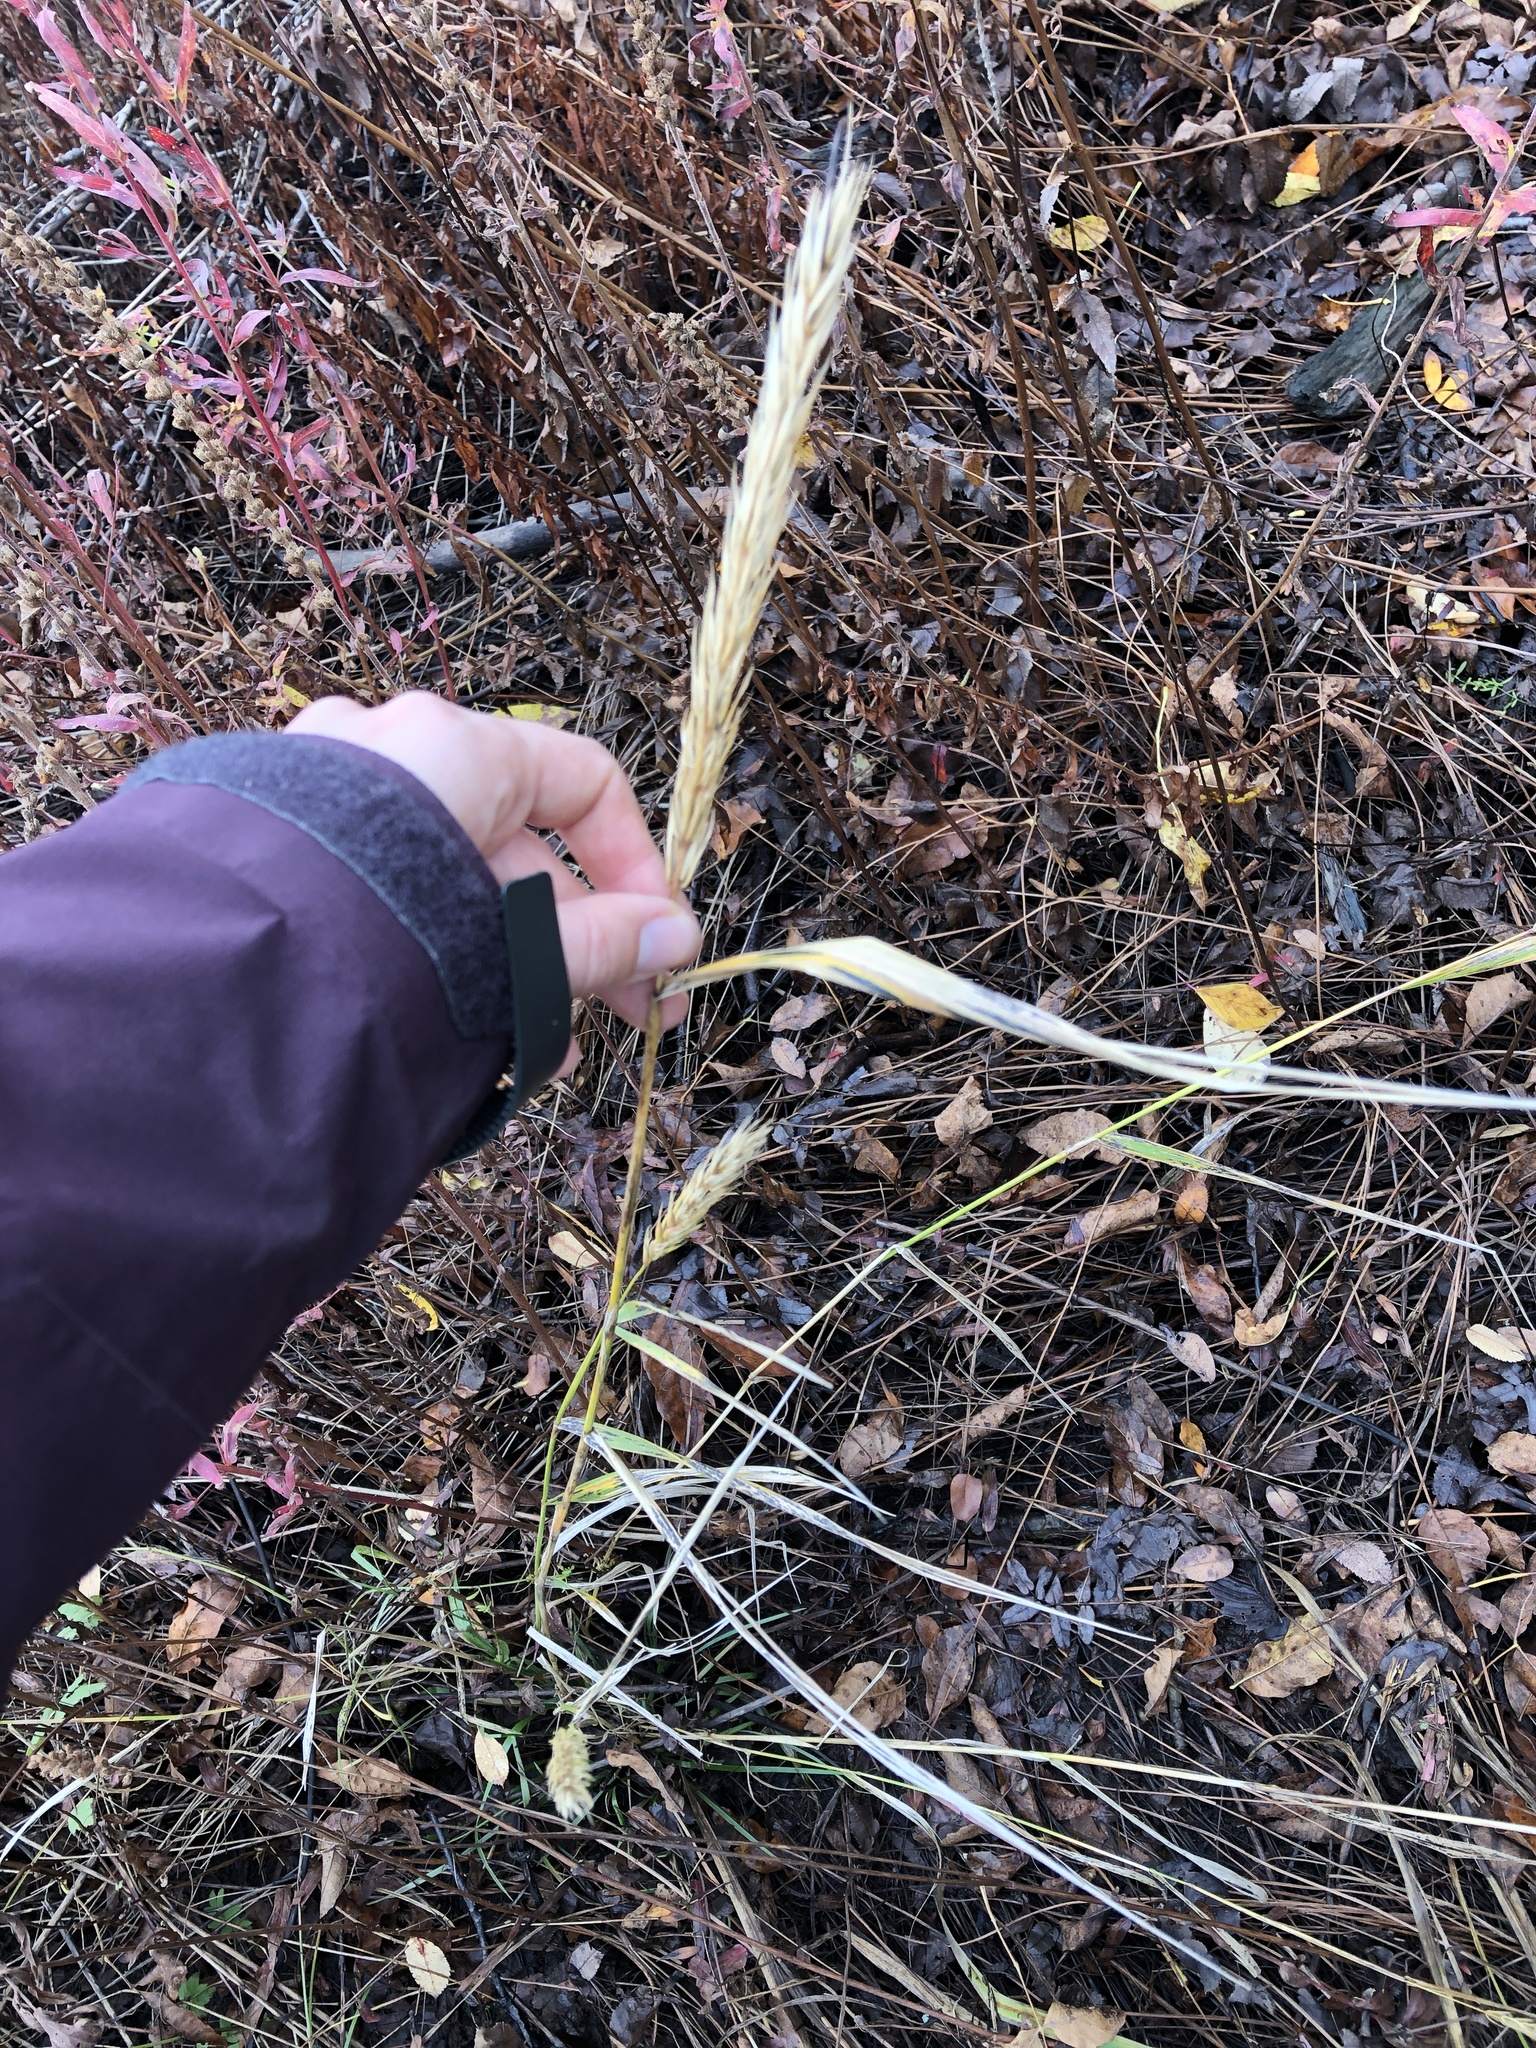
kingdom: Plantae
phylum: Tracheophyta
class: Liliopsida
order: Poales
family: Poaceae
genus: Elymus
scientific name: Elymus virginicus
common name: Common eastern wildrye
